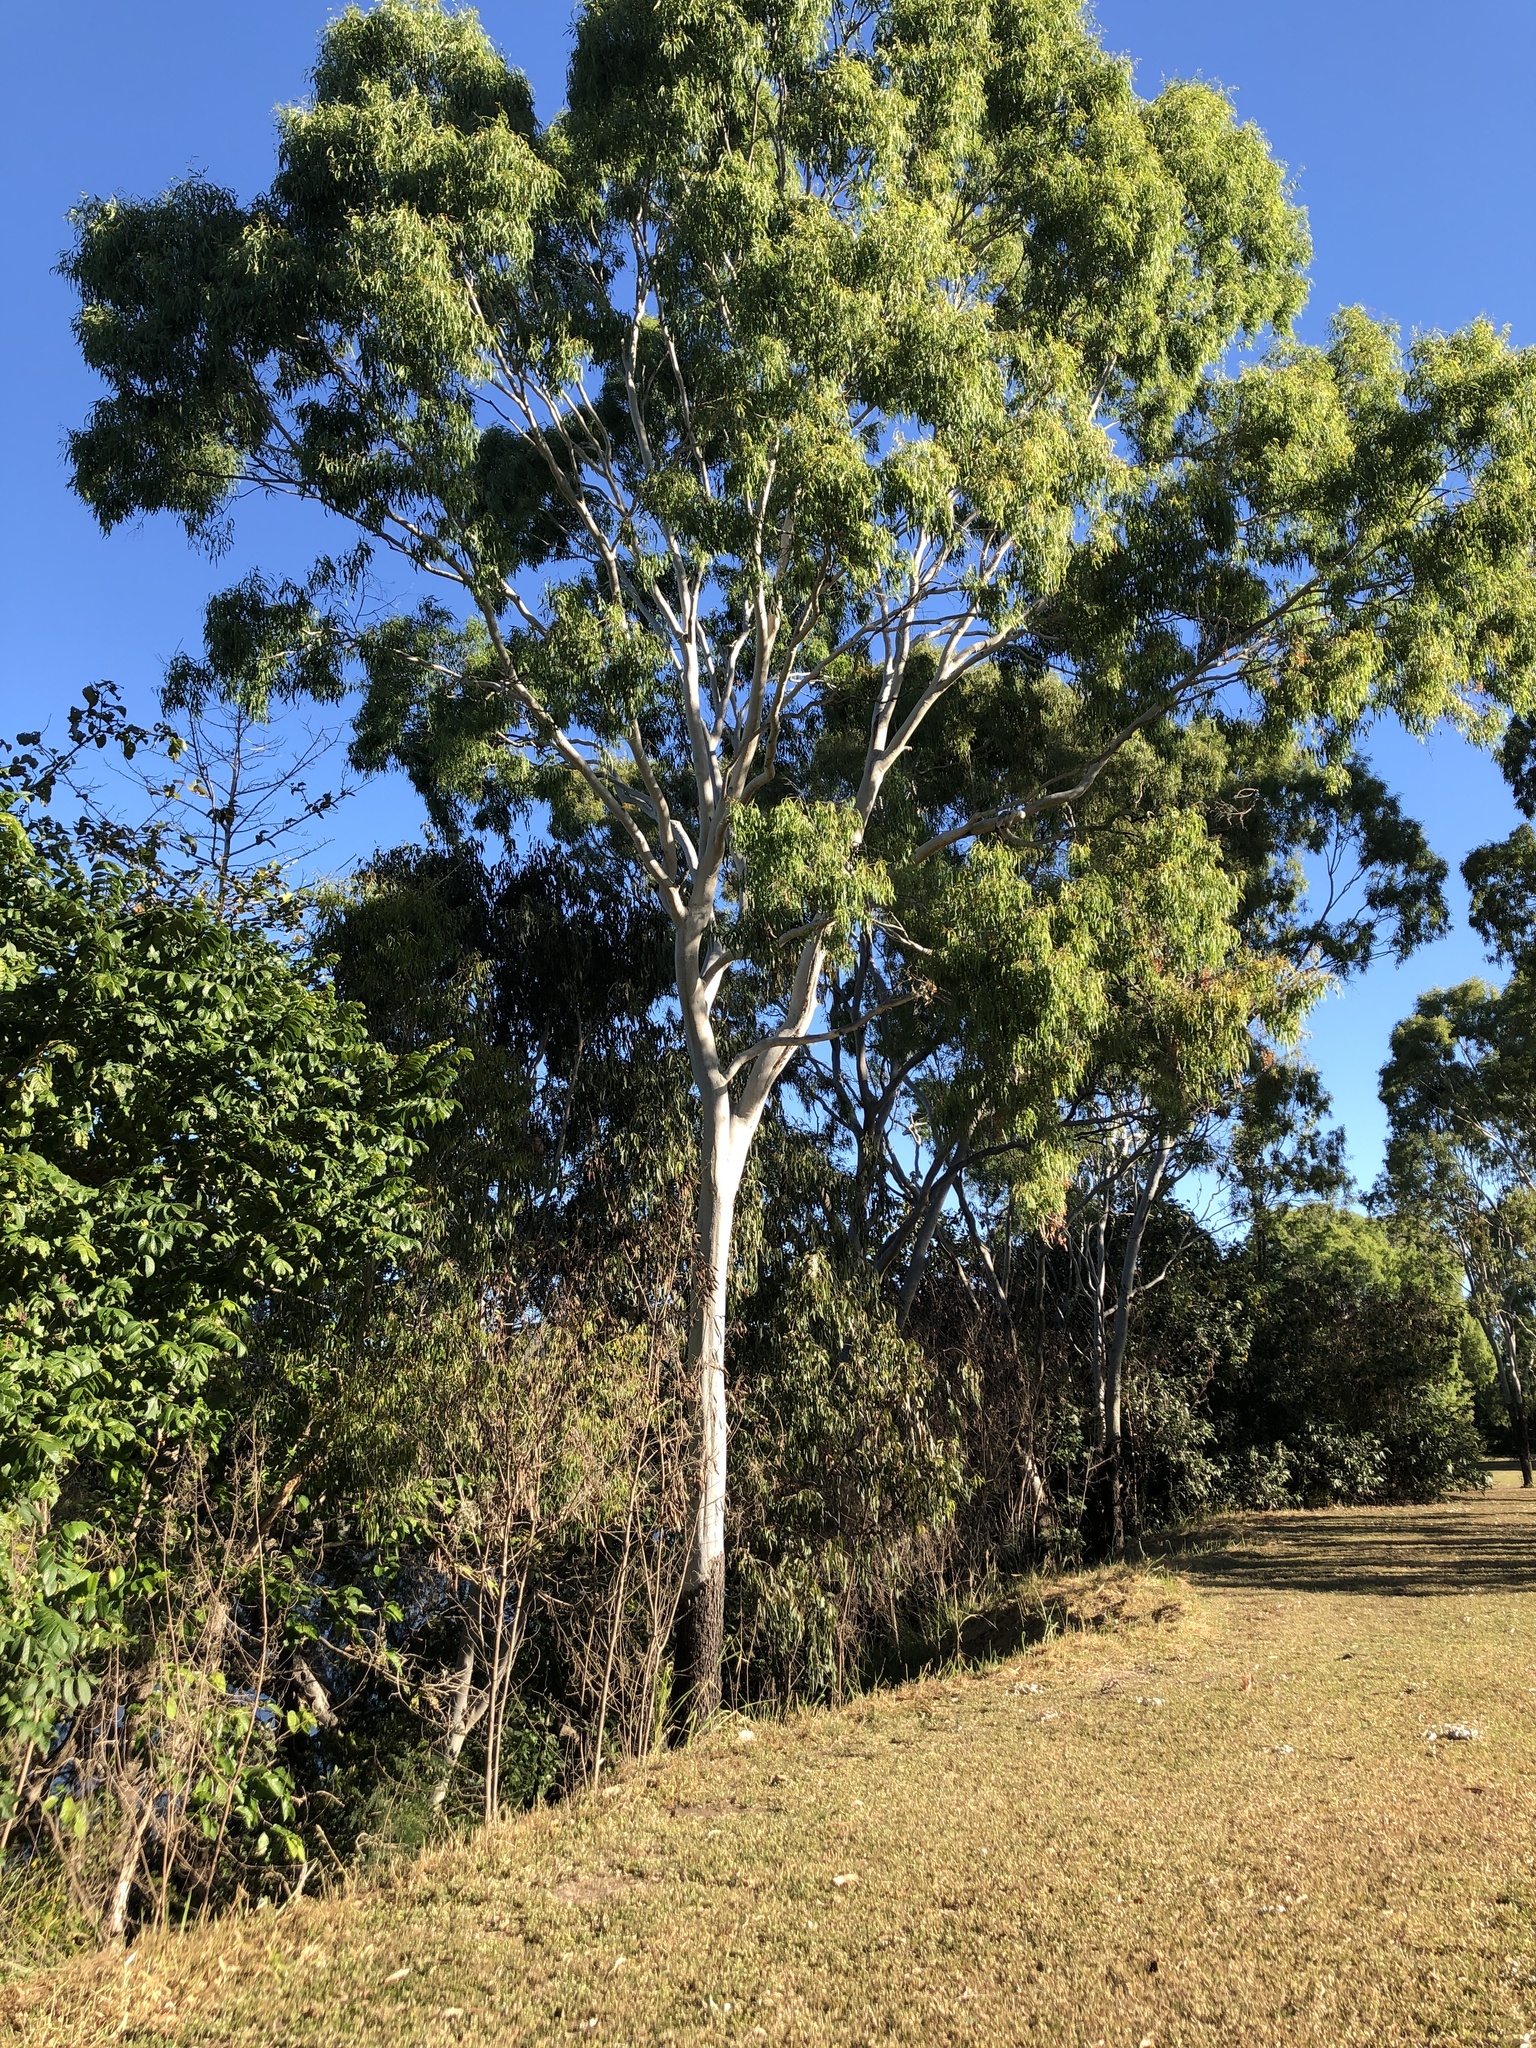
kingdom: Plantae
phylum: Tracheophyta
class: Magnoliopsida
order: Myrtales
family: Myrtaceae
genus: Corymbia
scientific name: Corymbia tessellaris
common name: Carbeen
